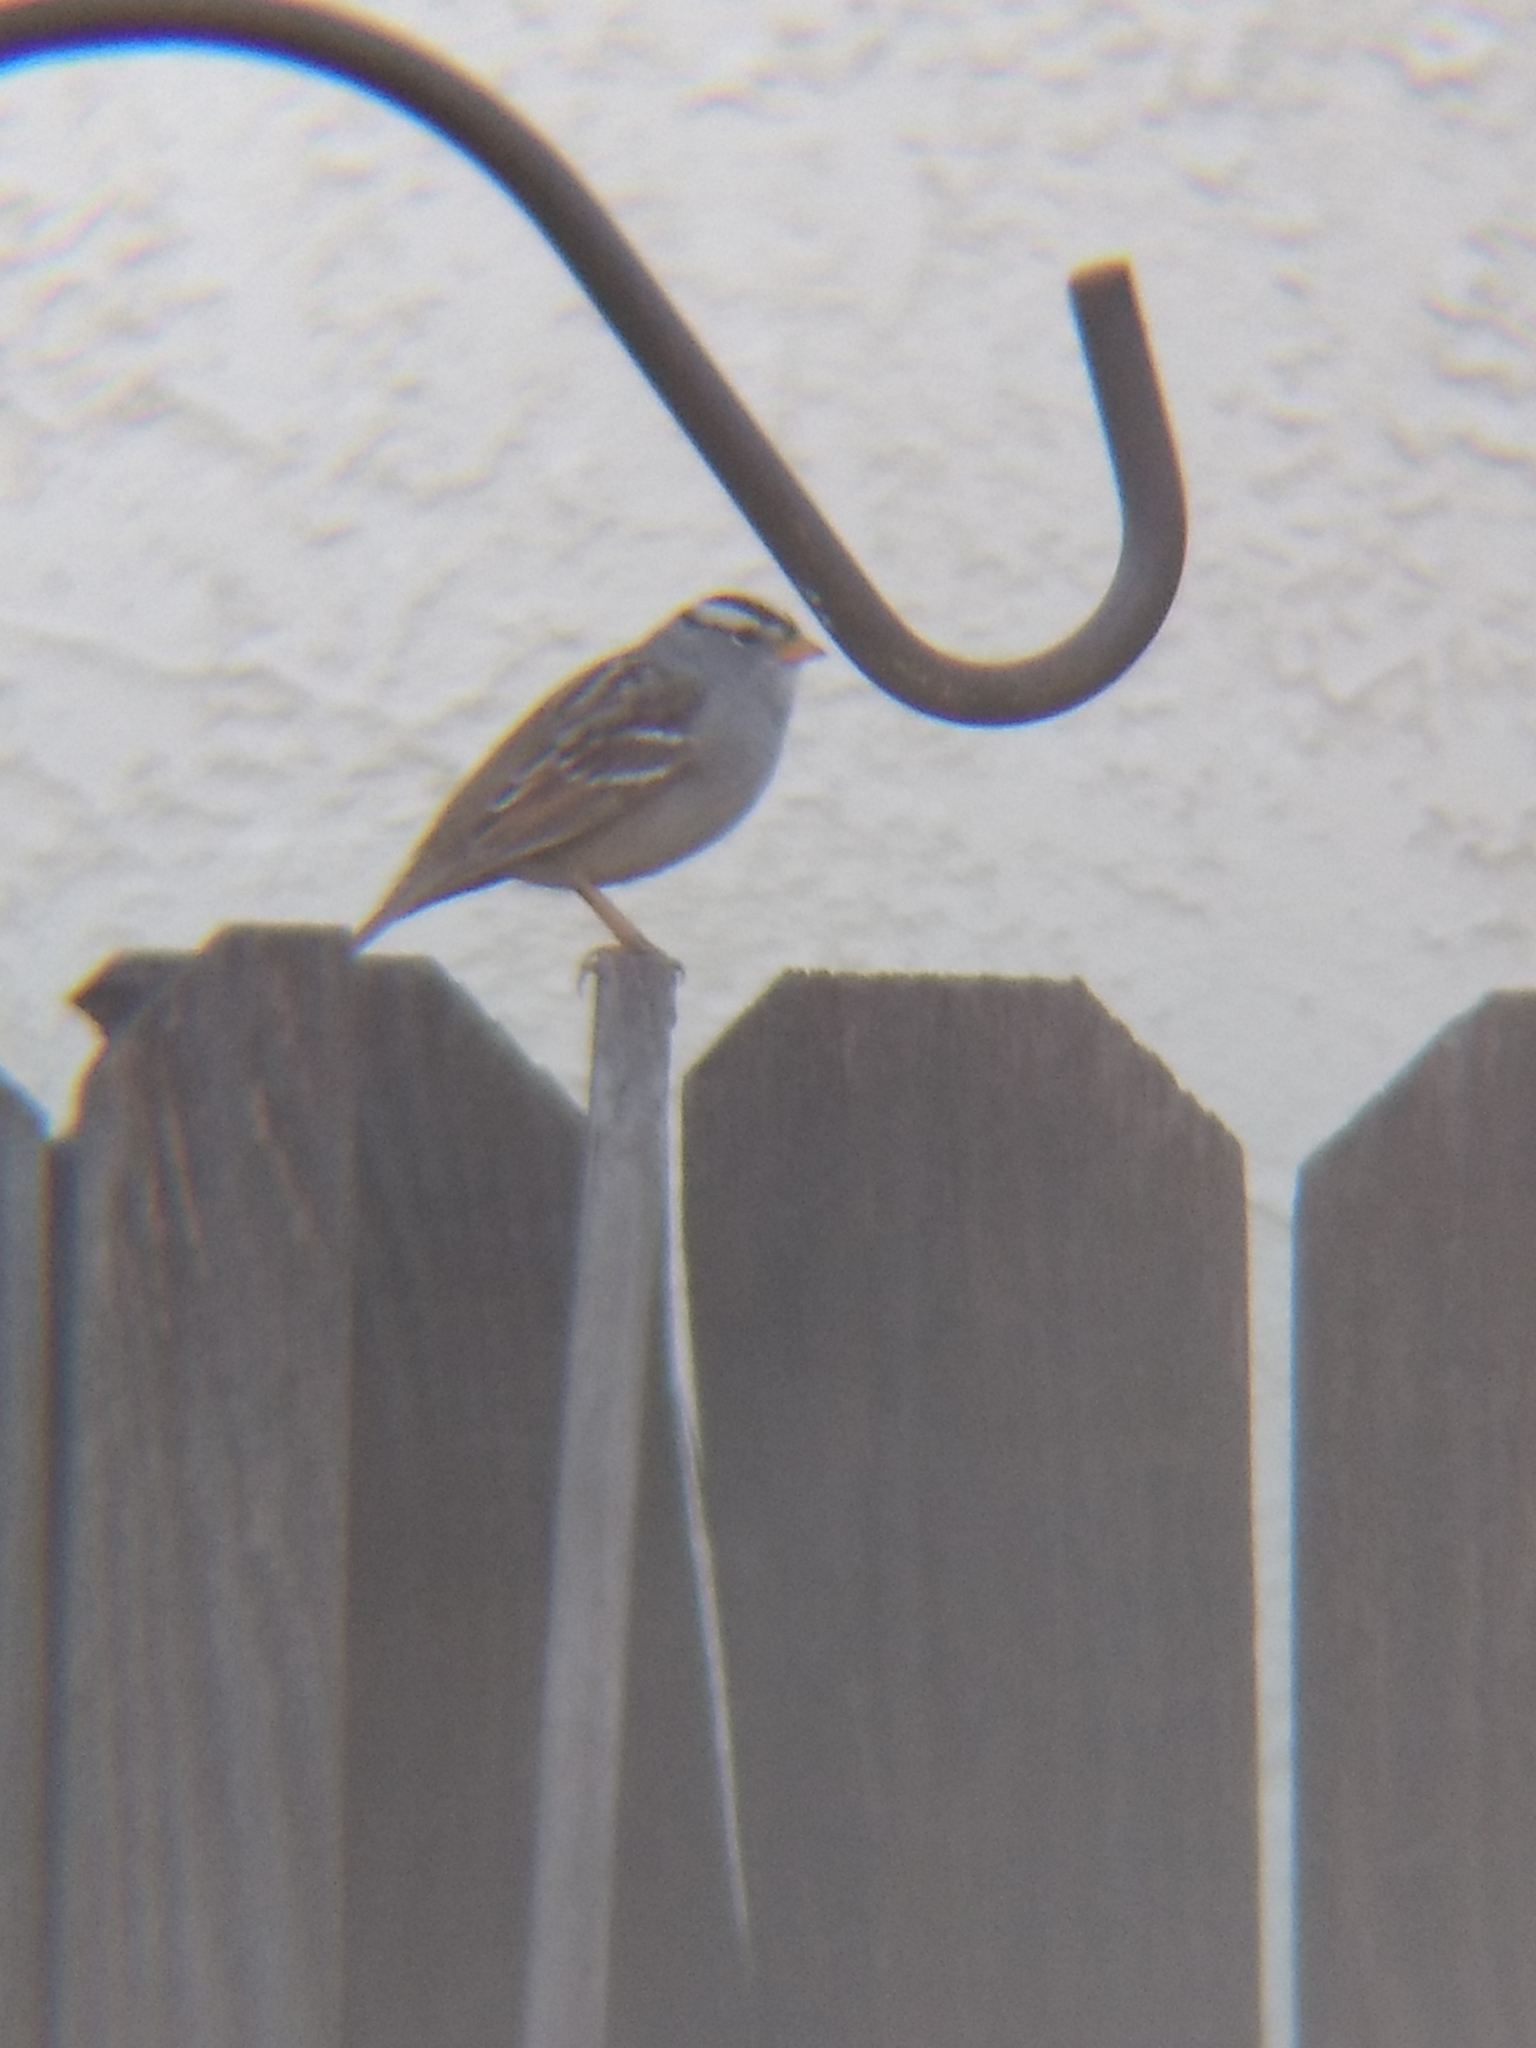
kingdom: Animalia
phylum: Chordata
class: Aves
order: Passeriformes
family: Passerellidae
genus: Zonotrichia
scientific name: Zonotrichia leucophrys
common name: White-crowned sparrow
